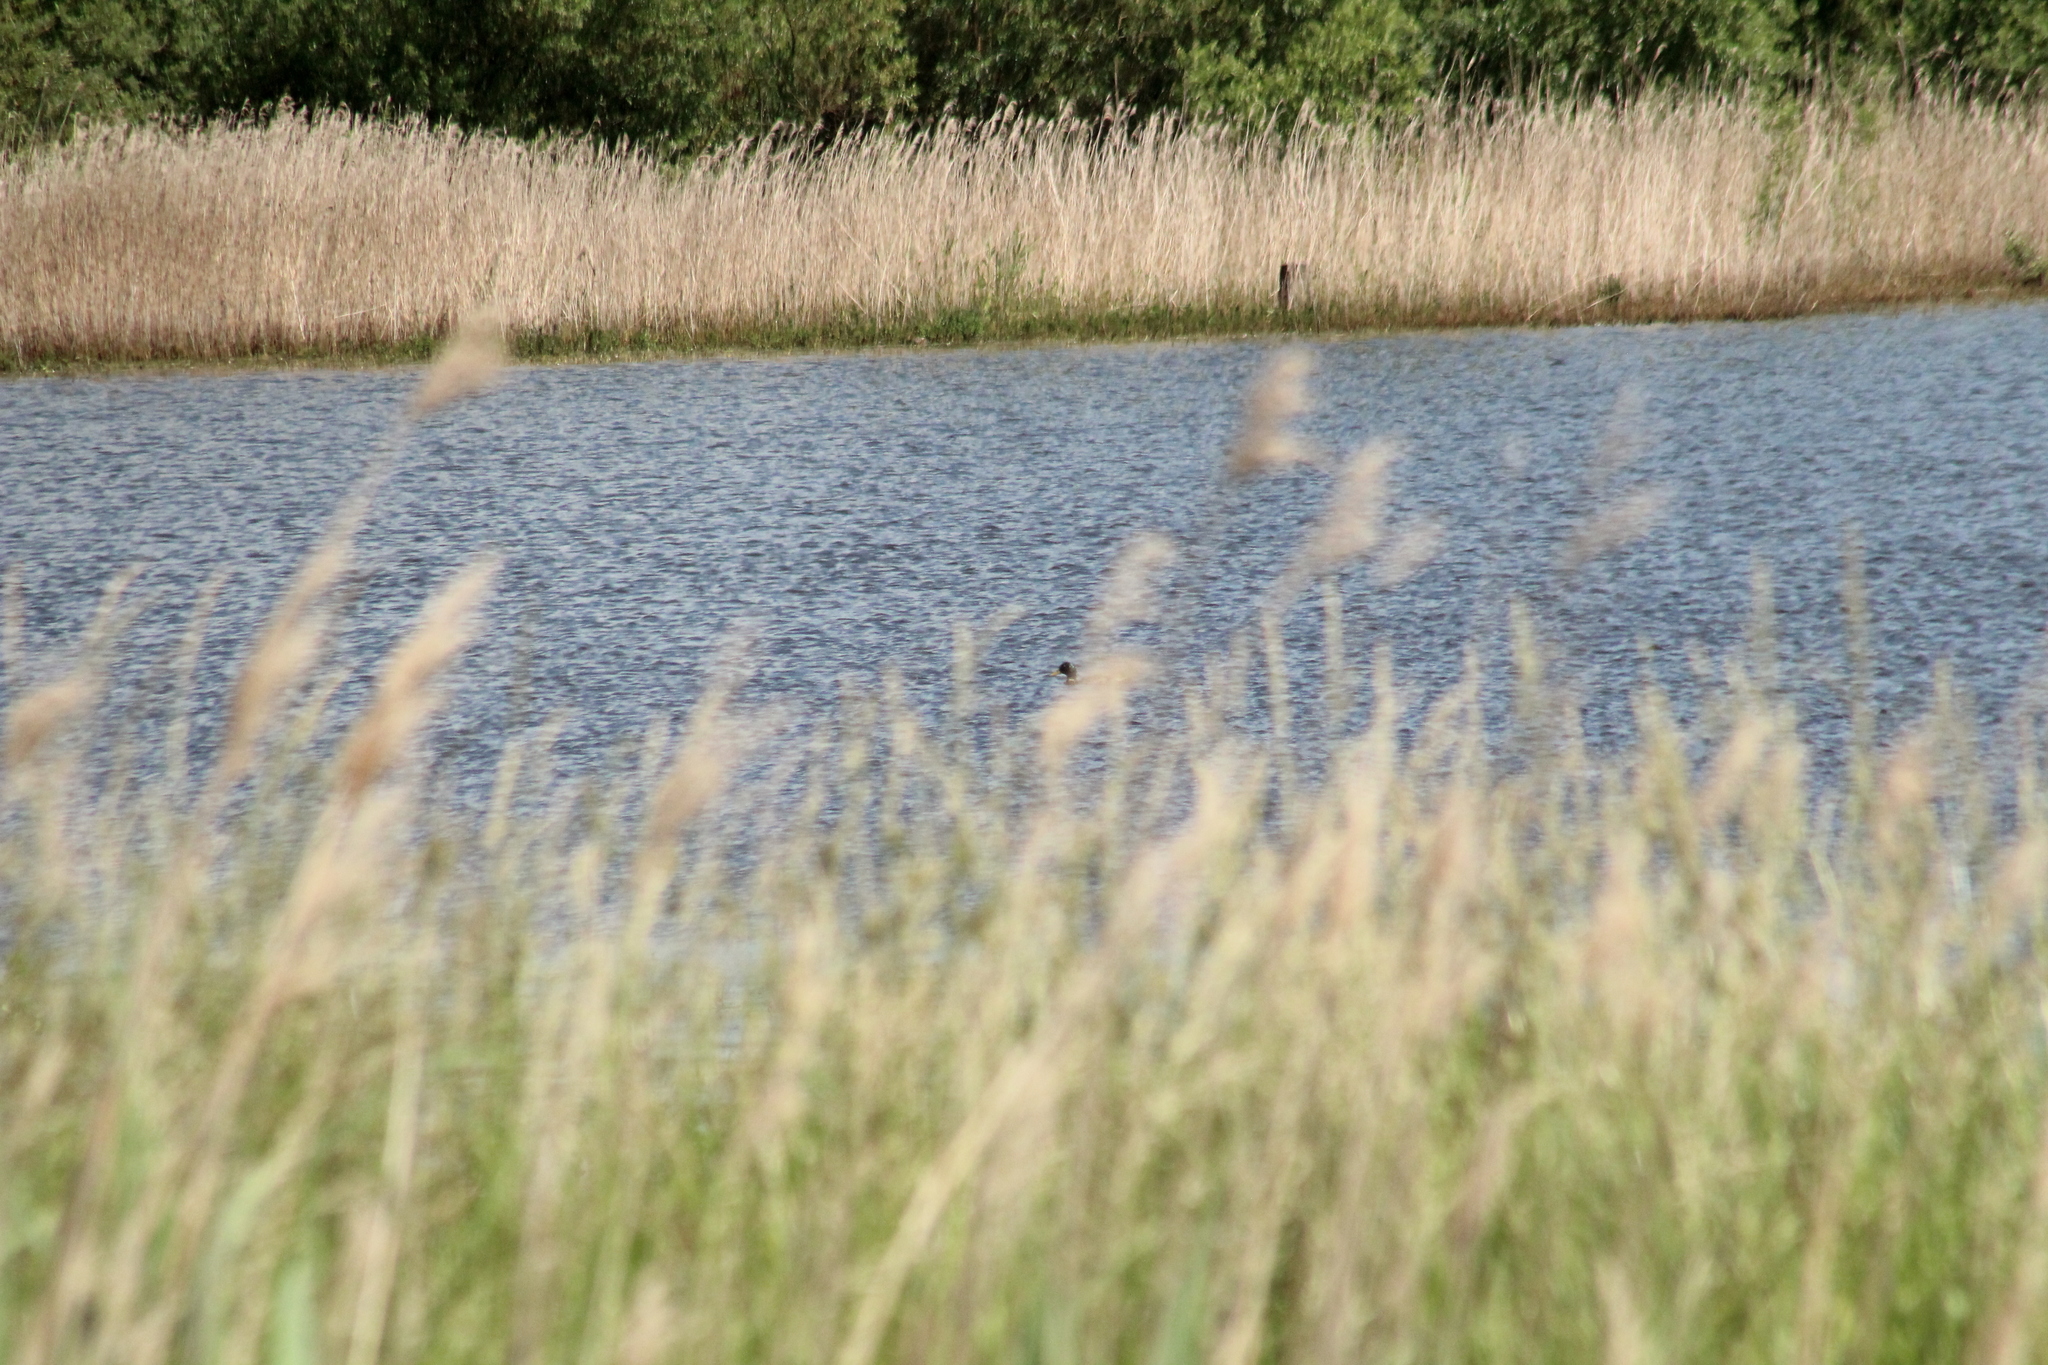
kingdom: Animalia
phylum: Chordata
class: Aves
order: Anseriformes
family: Anatidae
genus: Anas
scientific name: Anas platyrhynchos
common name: Mallard
